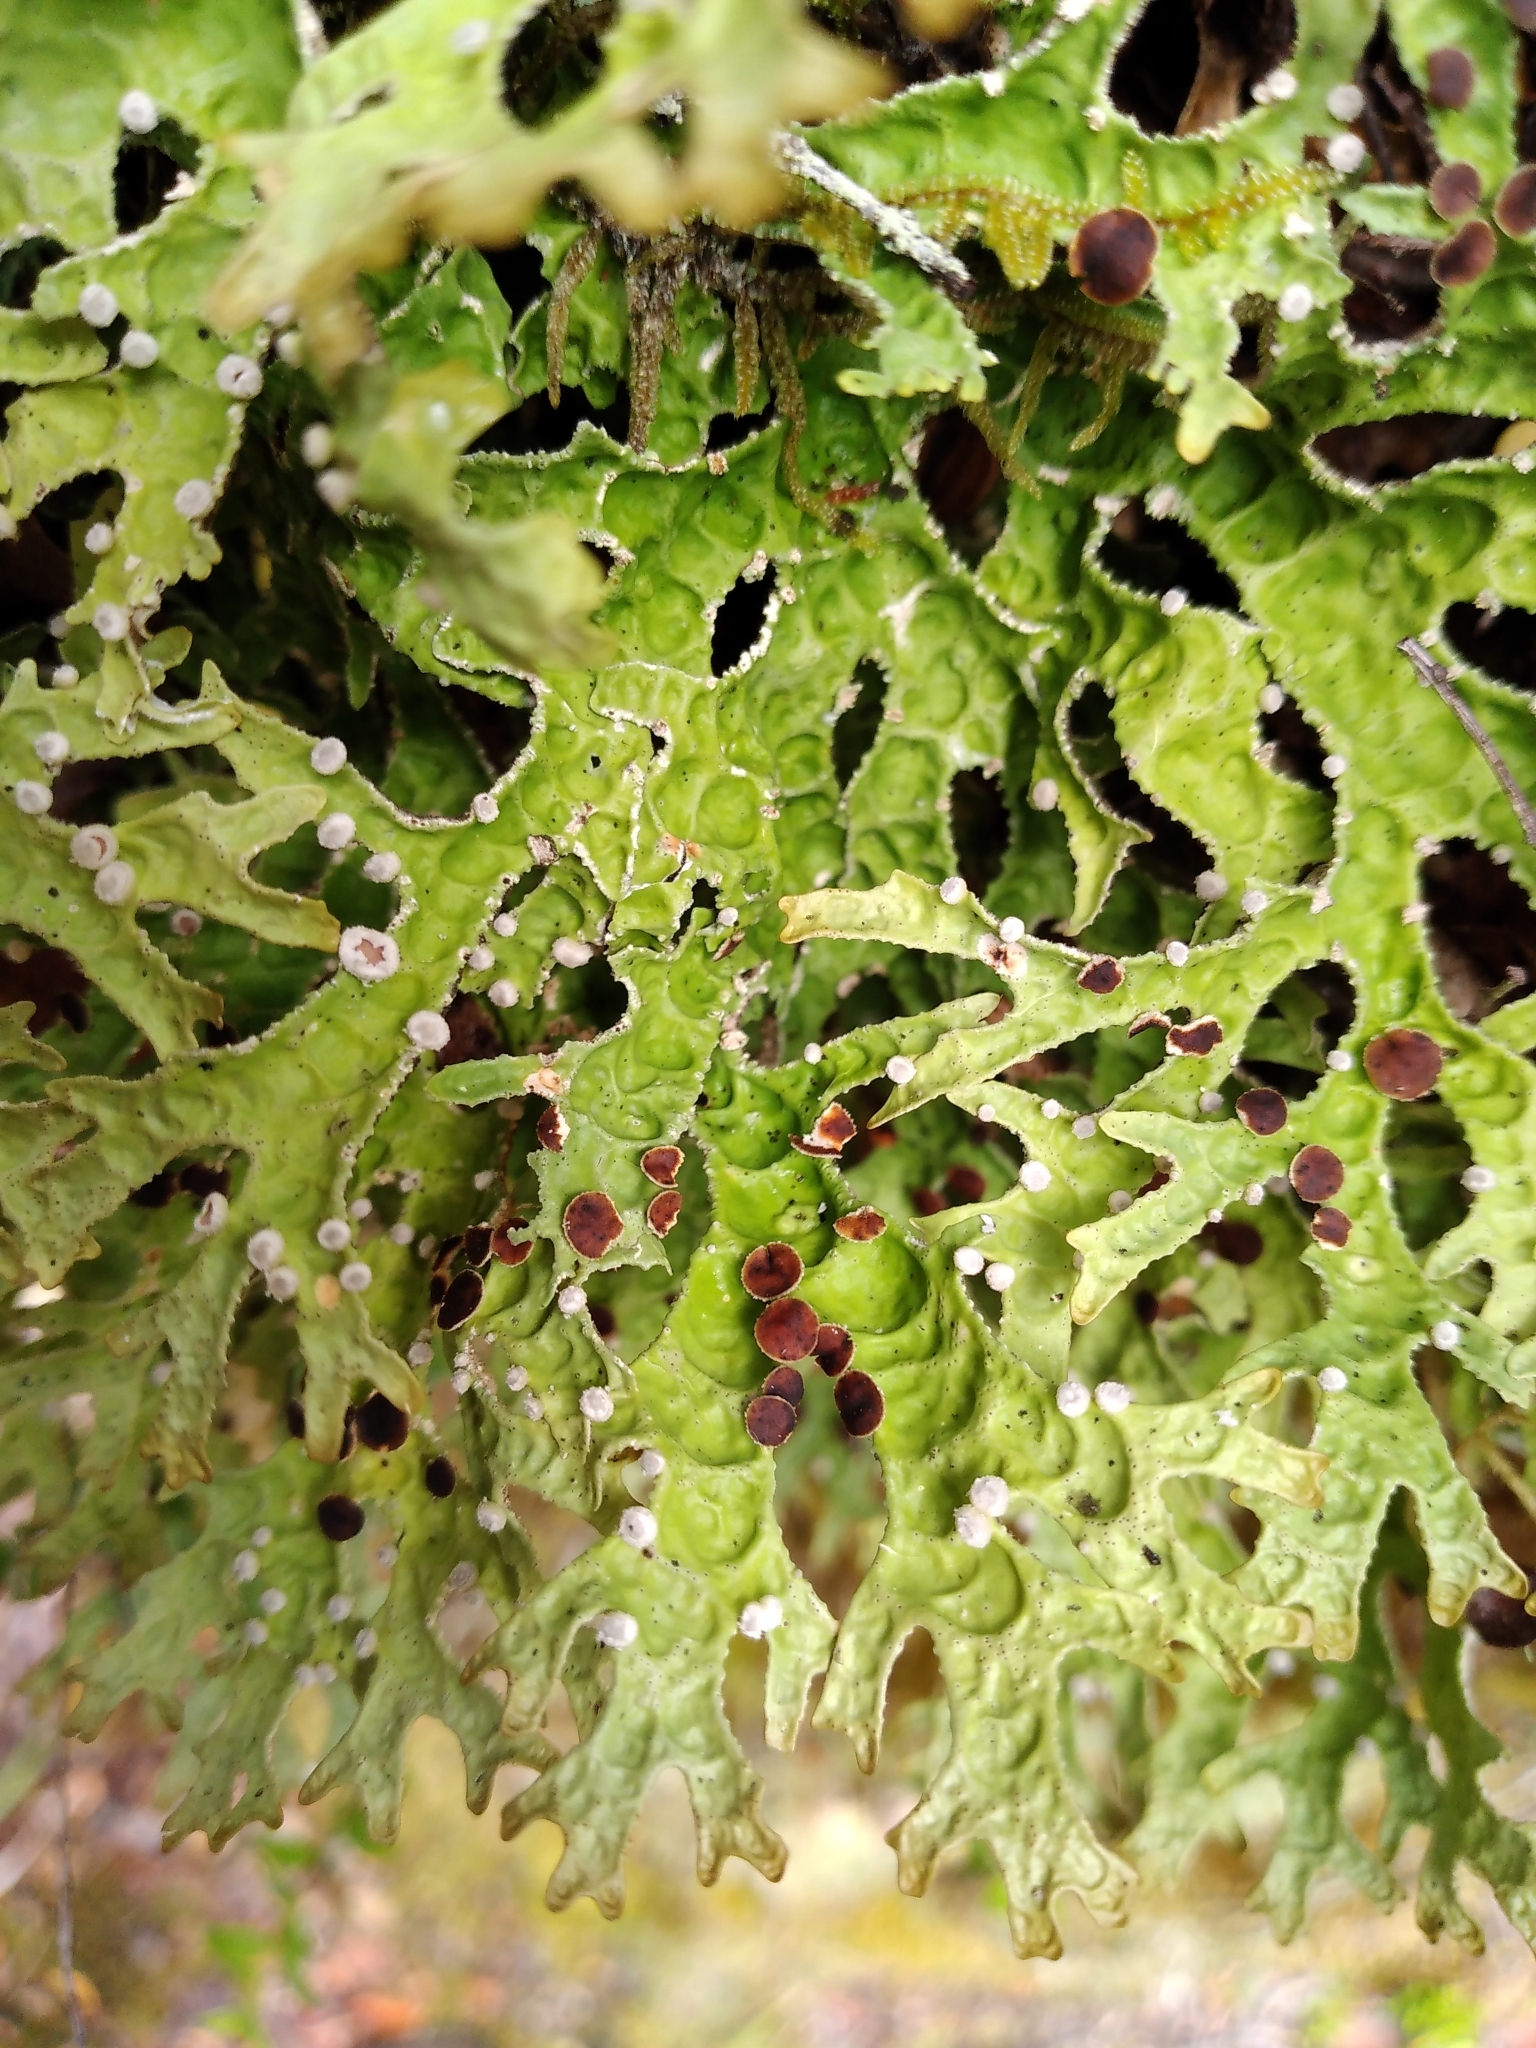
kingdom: Fungi
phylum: Ascomycota
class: Lecanoromycetes
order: Peltigerales
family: Lobariaceae
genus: Pseudocyphellaria
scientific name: Pseudocyphellaria carpoloma
